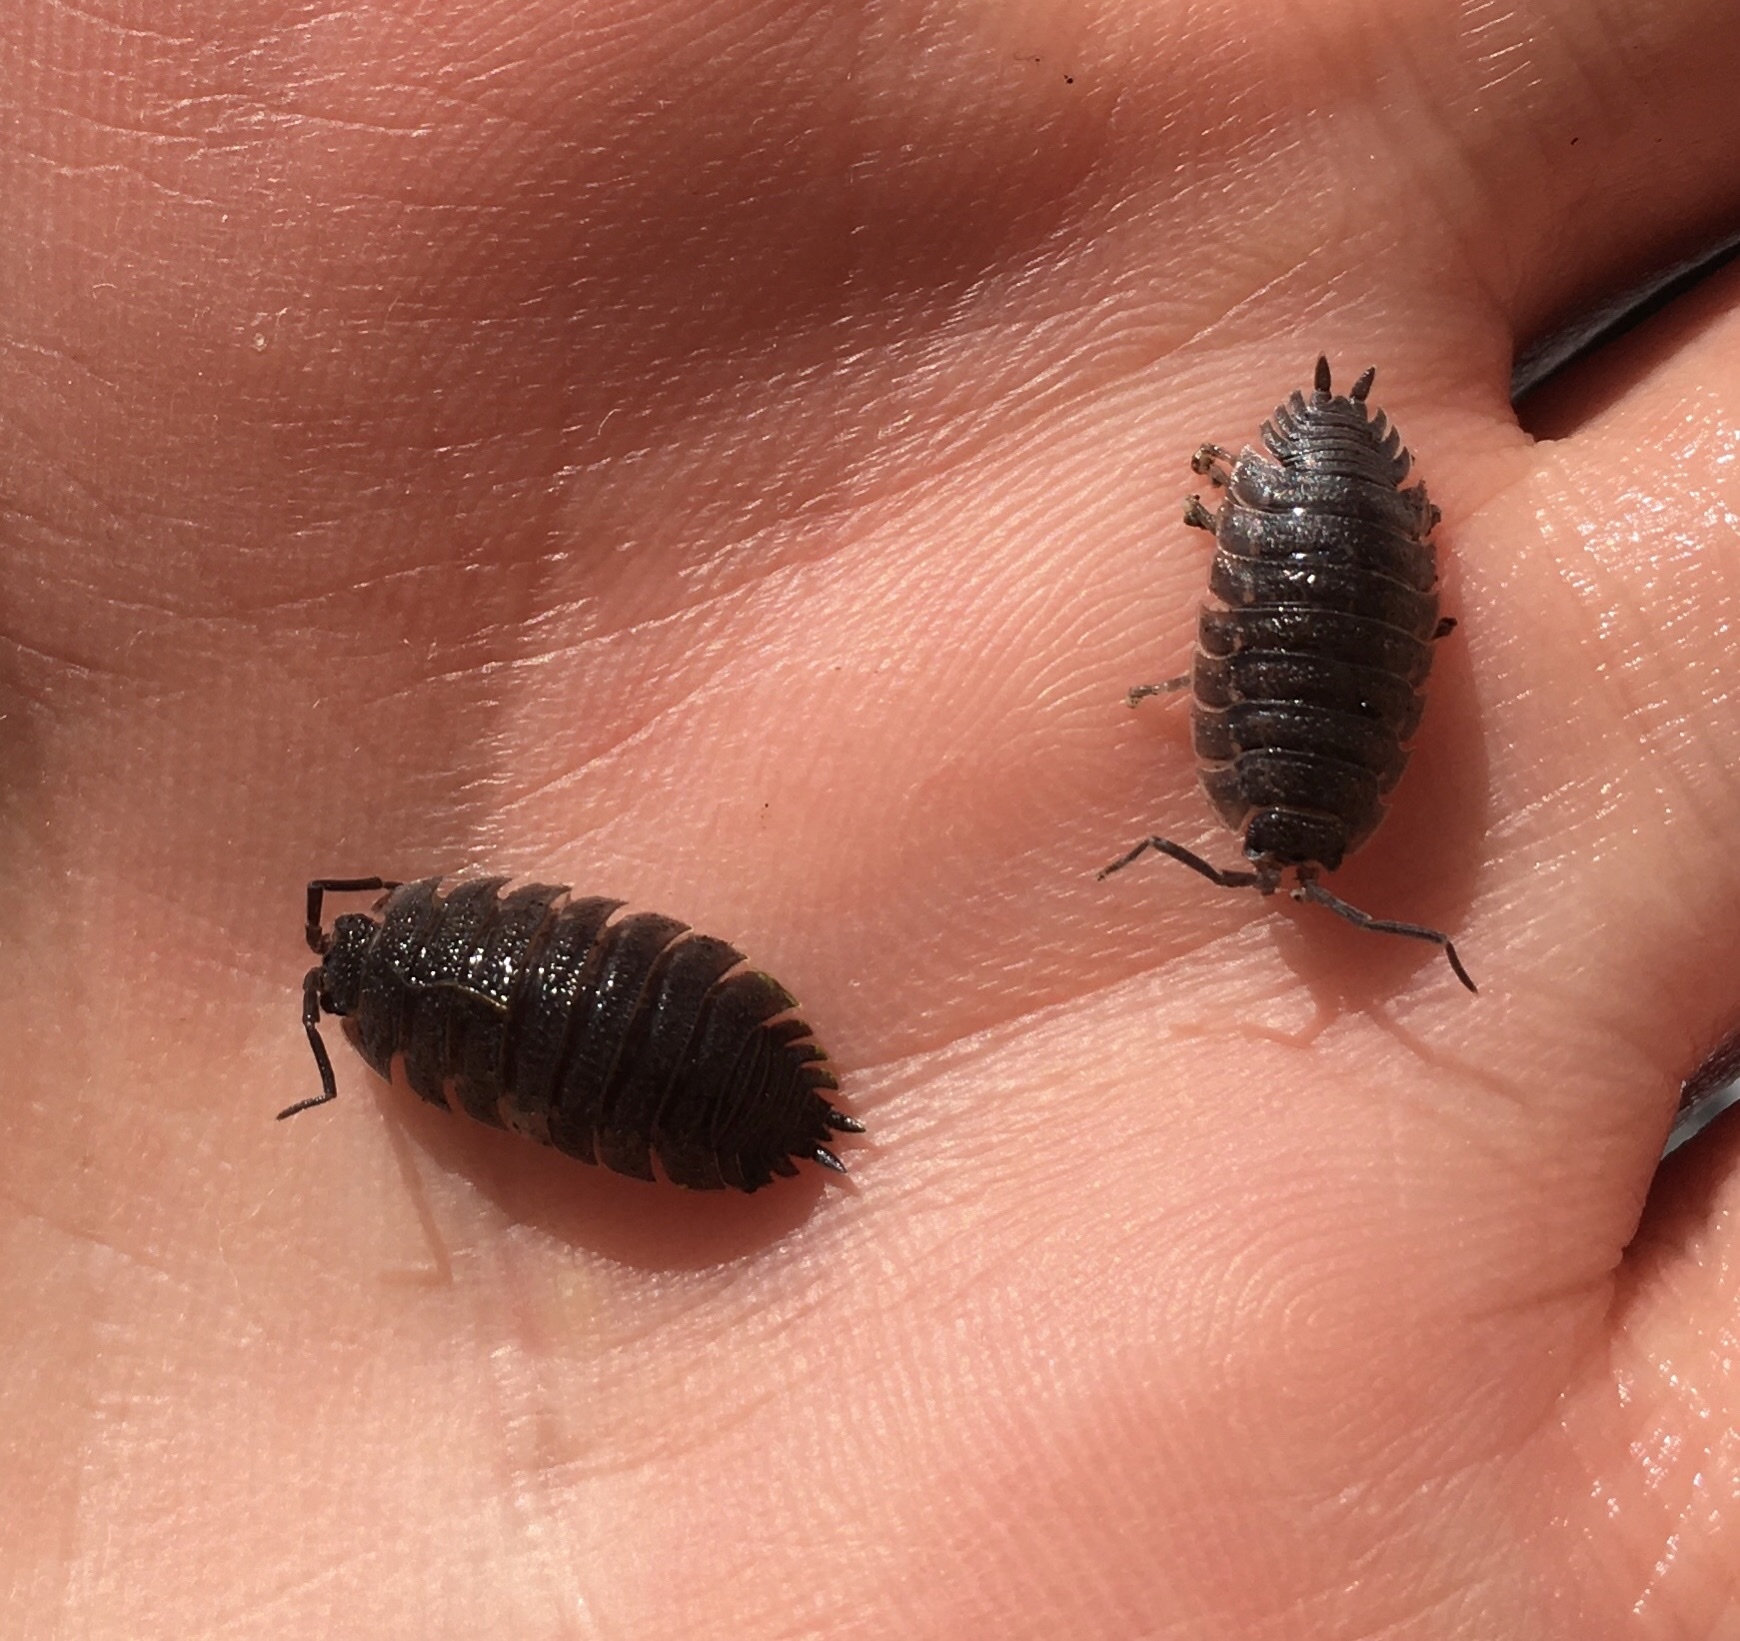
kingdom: Animalia
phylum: Arthropoda
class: Malacostraca
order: Isopoda
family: Porcellionidae
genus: Porcellio
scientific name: Porcellio scaber
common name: Common rough woodlouse
